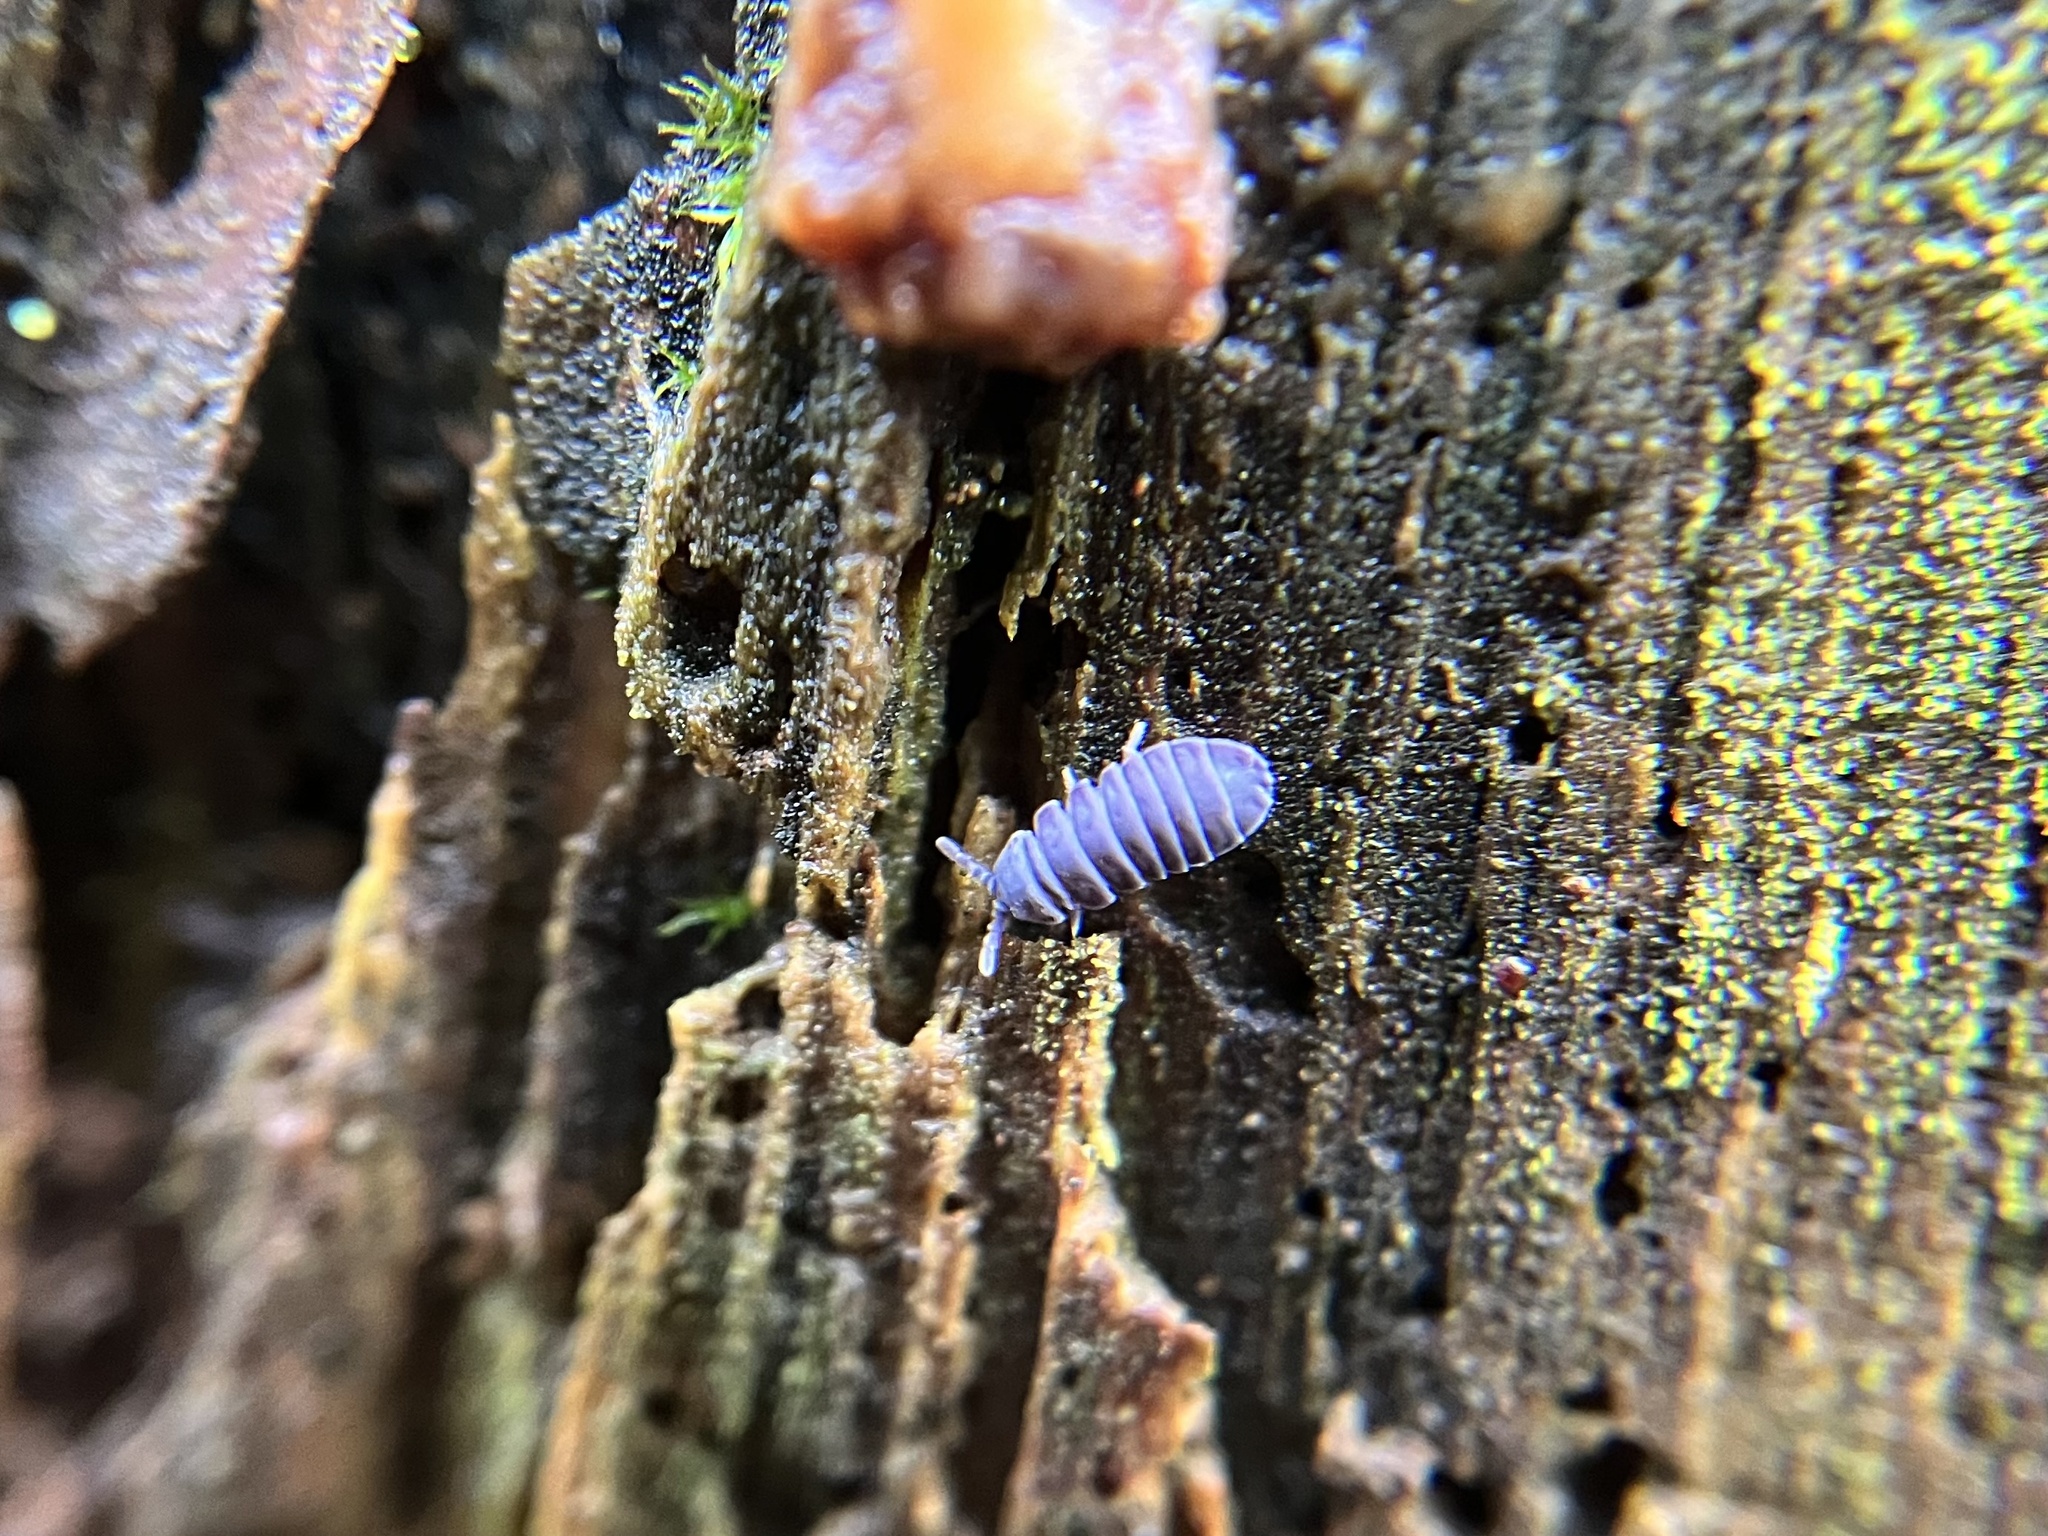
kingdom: Animalia
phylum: Arthropoda
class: Collembola
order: Poduromorpha
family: Onychiuridae
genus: Tetrodontophora
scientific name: Tetrodontophora bielanensis
